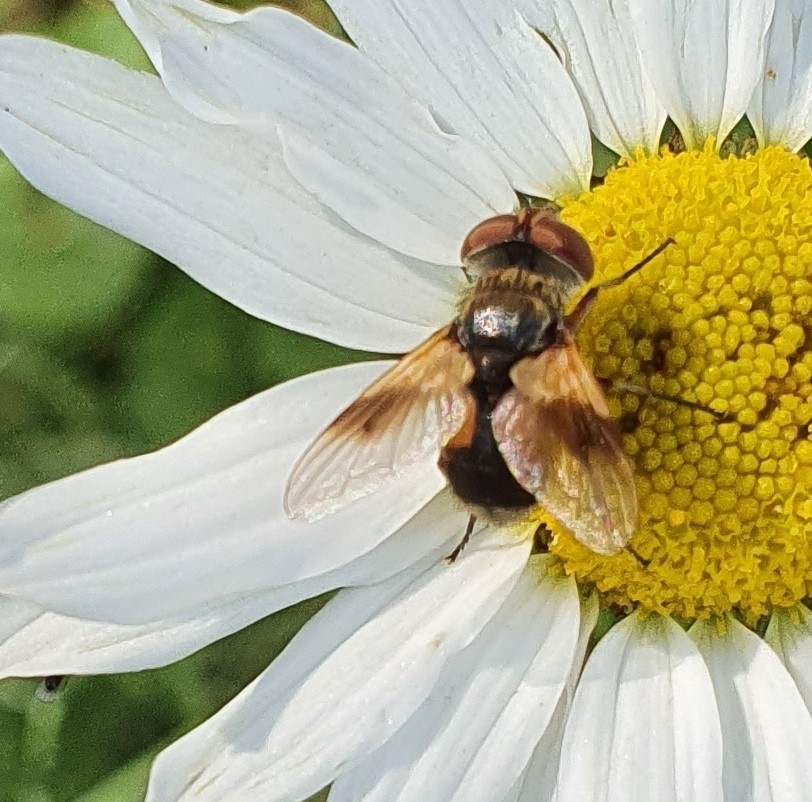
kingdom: Animalia
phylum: Arthropoda
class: Insecta
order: Diptera
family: Tachinidae
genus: Ectophasia
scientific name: Ectophasia crassipennis
